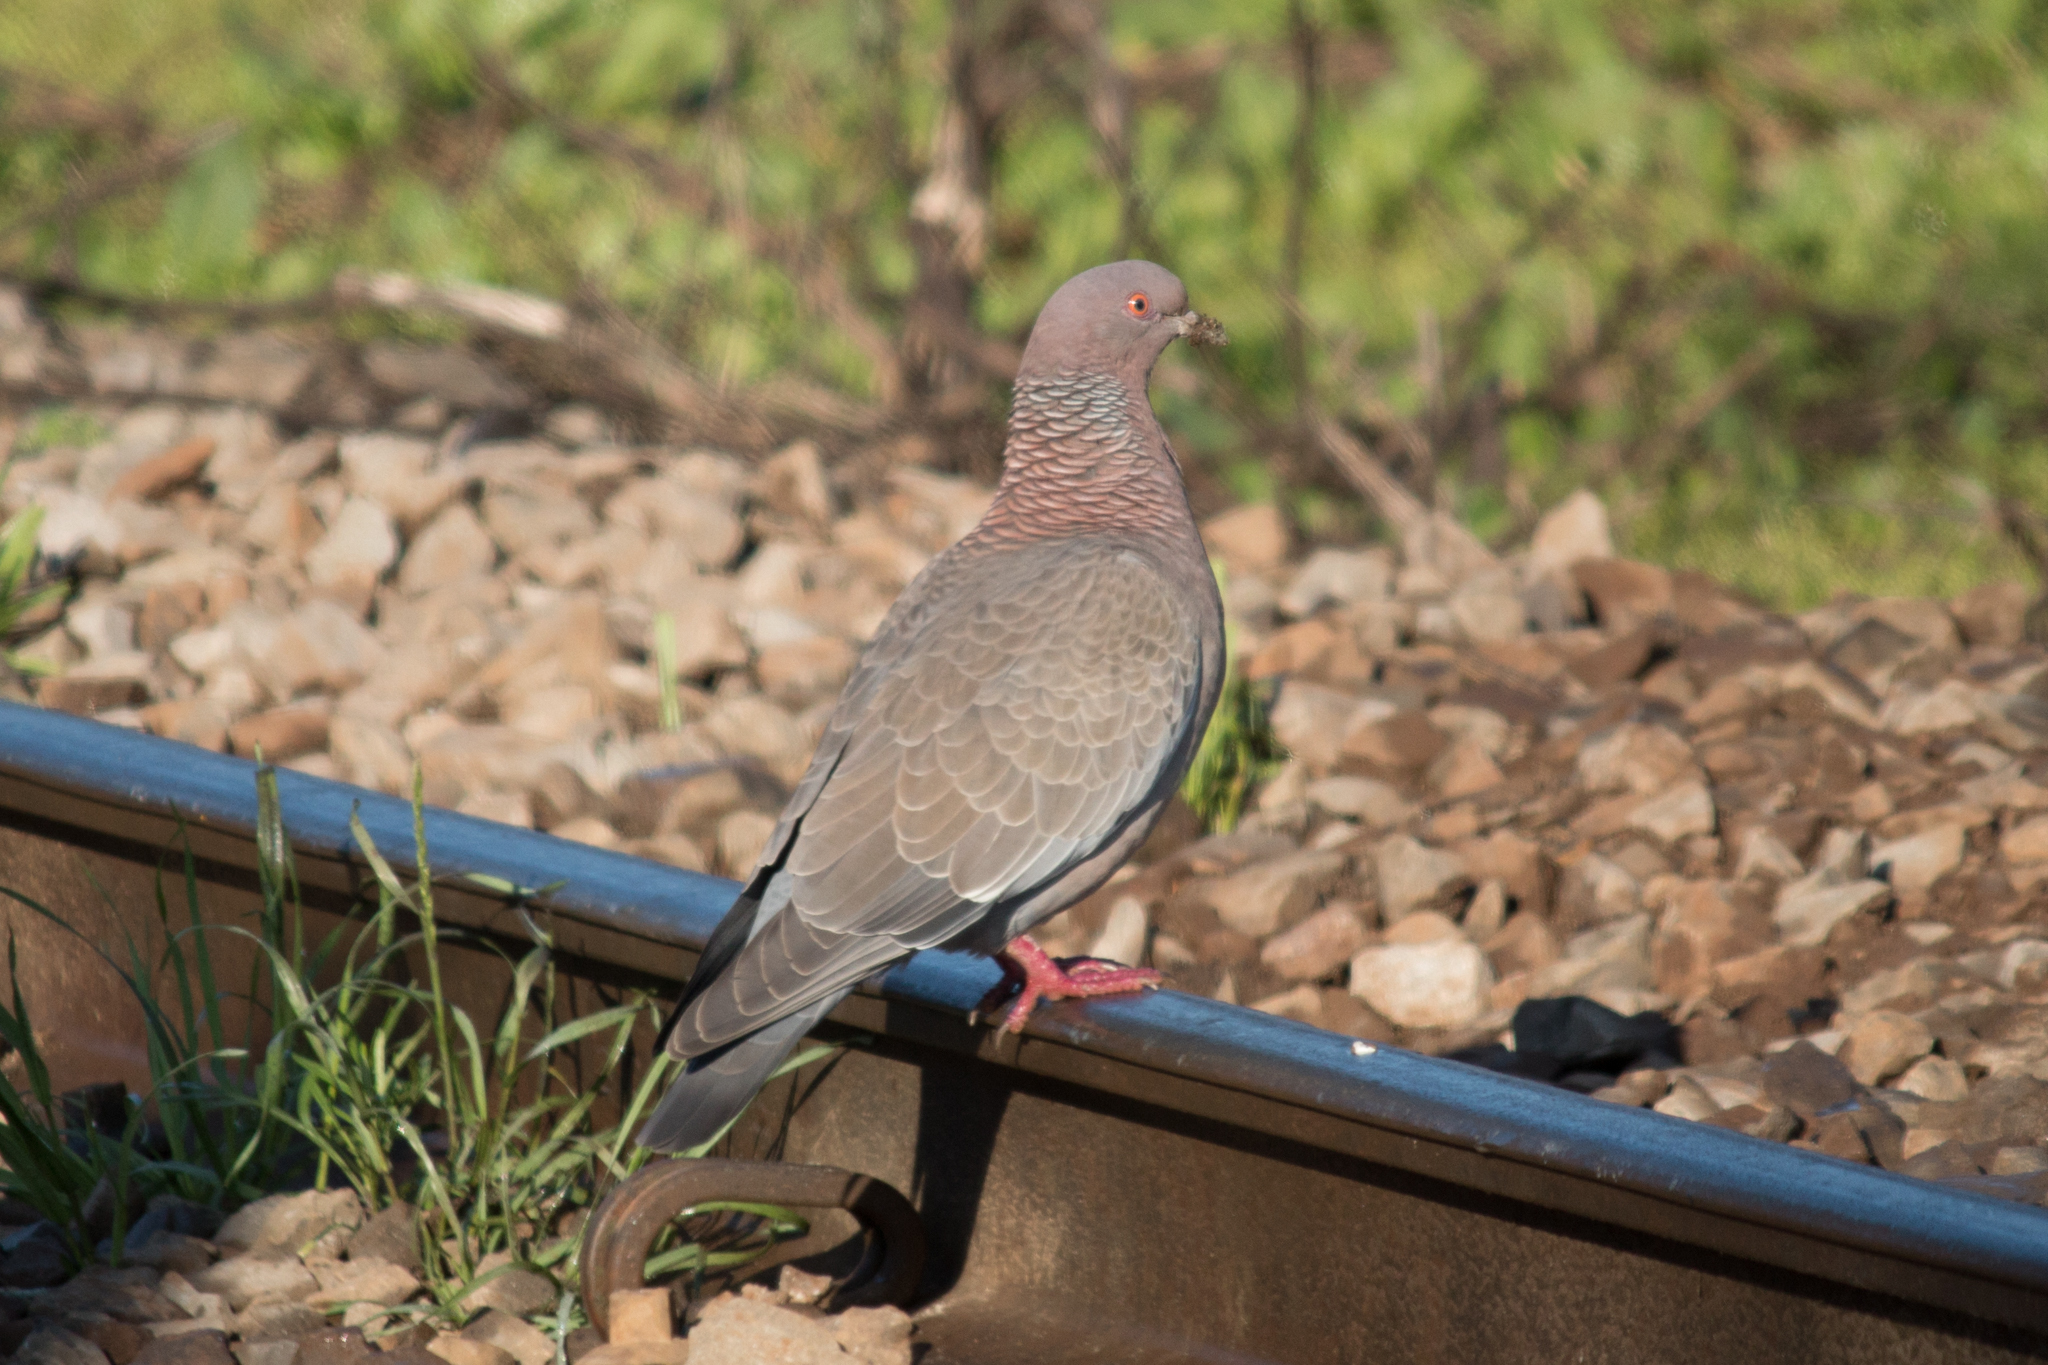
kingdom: Animalia
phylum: Chordata
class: Aves
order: Columbiformes
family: Columbidae
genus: Patagioenas
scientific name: Patagioenas picazuro
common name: Picazuro pigeon
